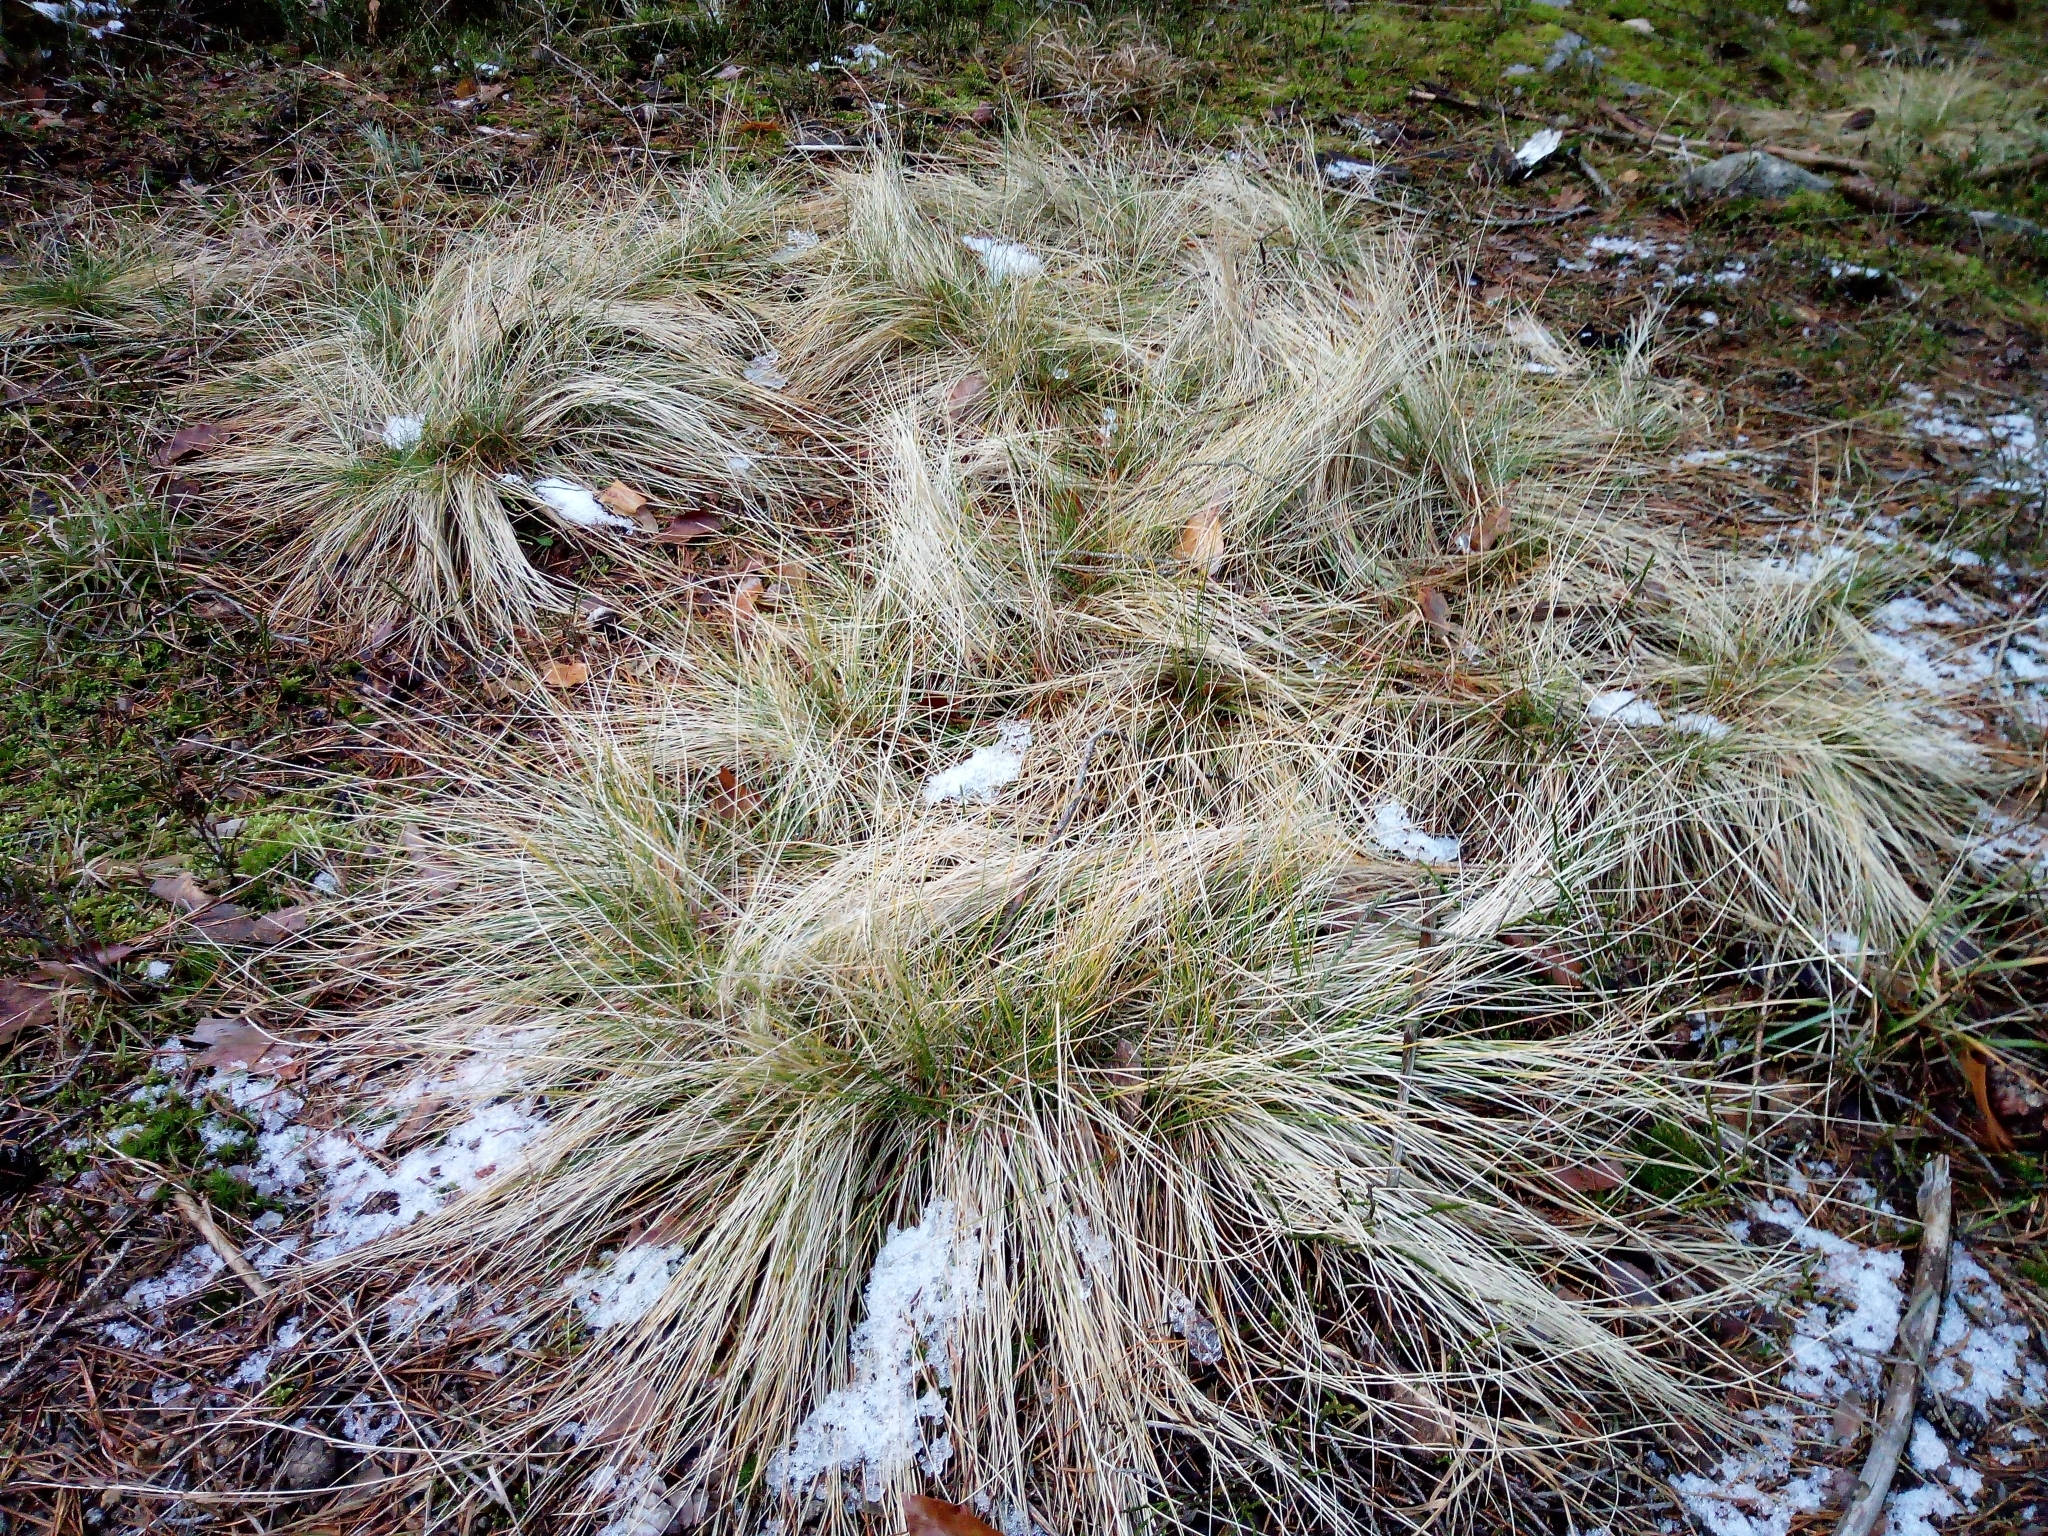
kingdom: Plantae
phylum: Tracheophyta
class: Liliopsida
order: Poales
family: Poaceae
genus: Nardus
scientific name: Nardus stricta
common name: Mat-grass
